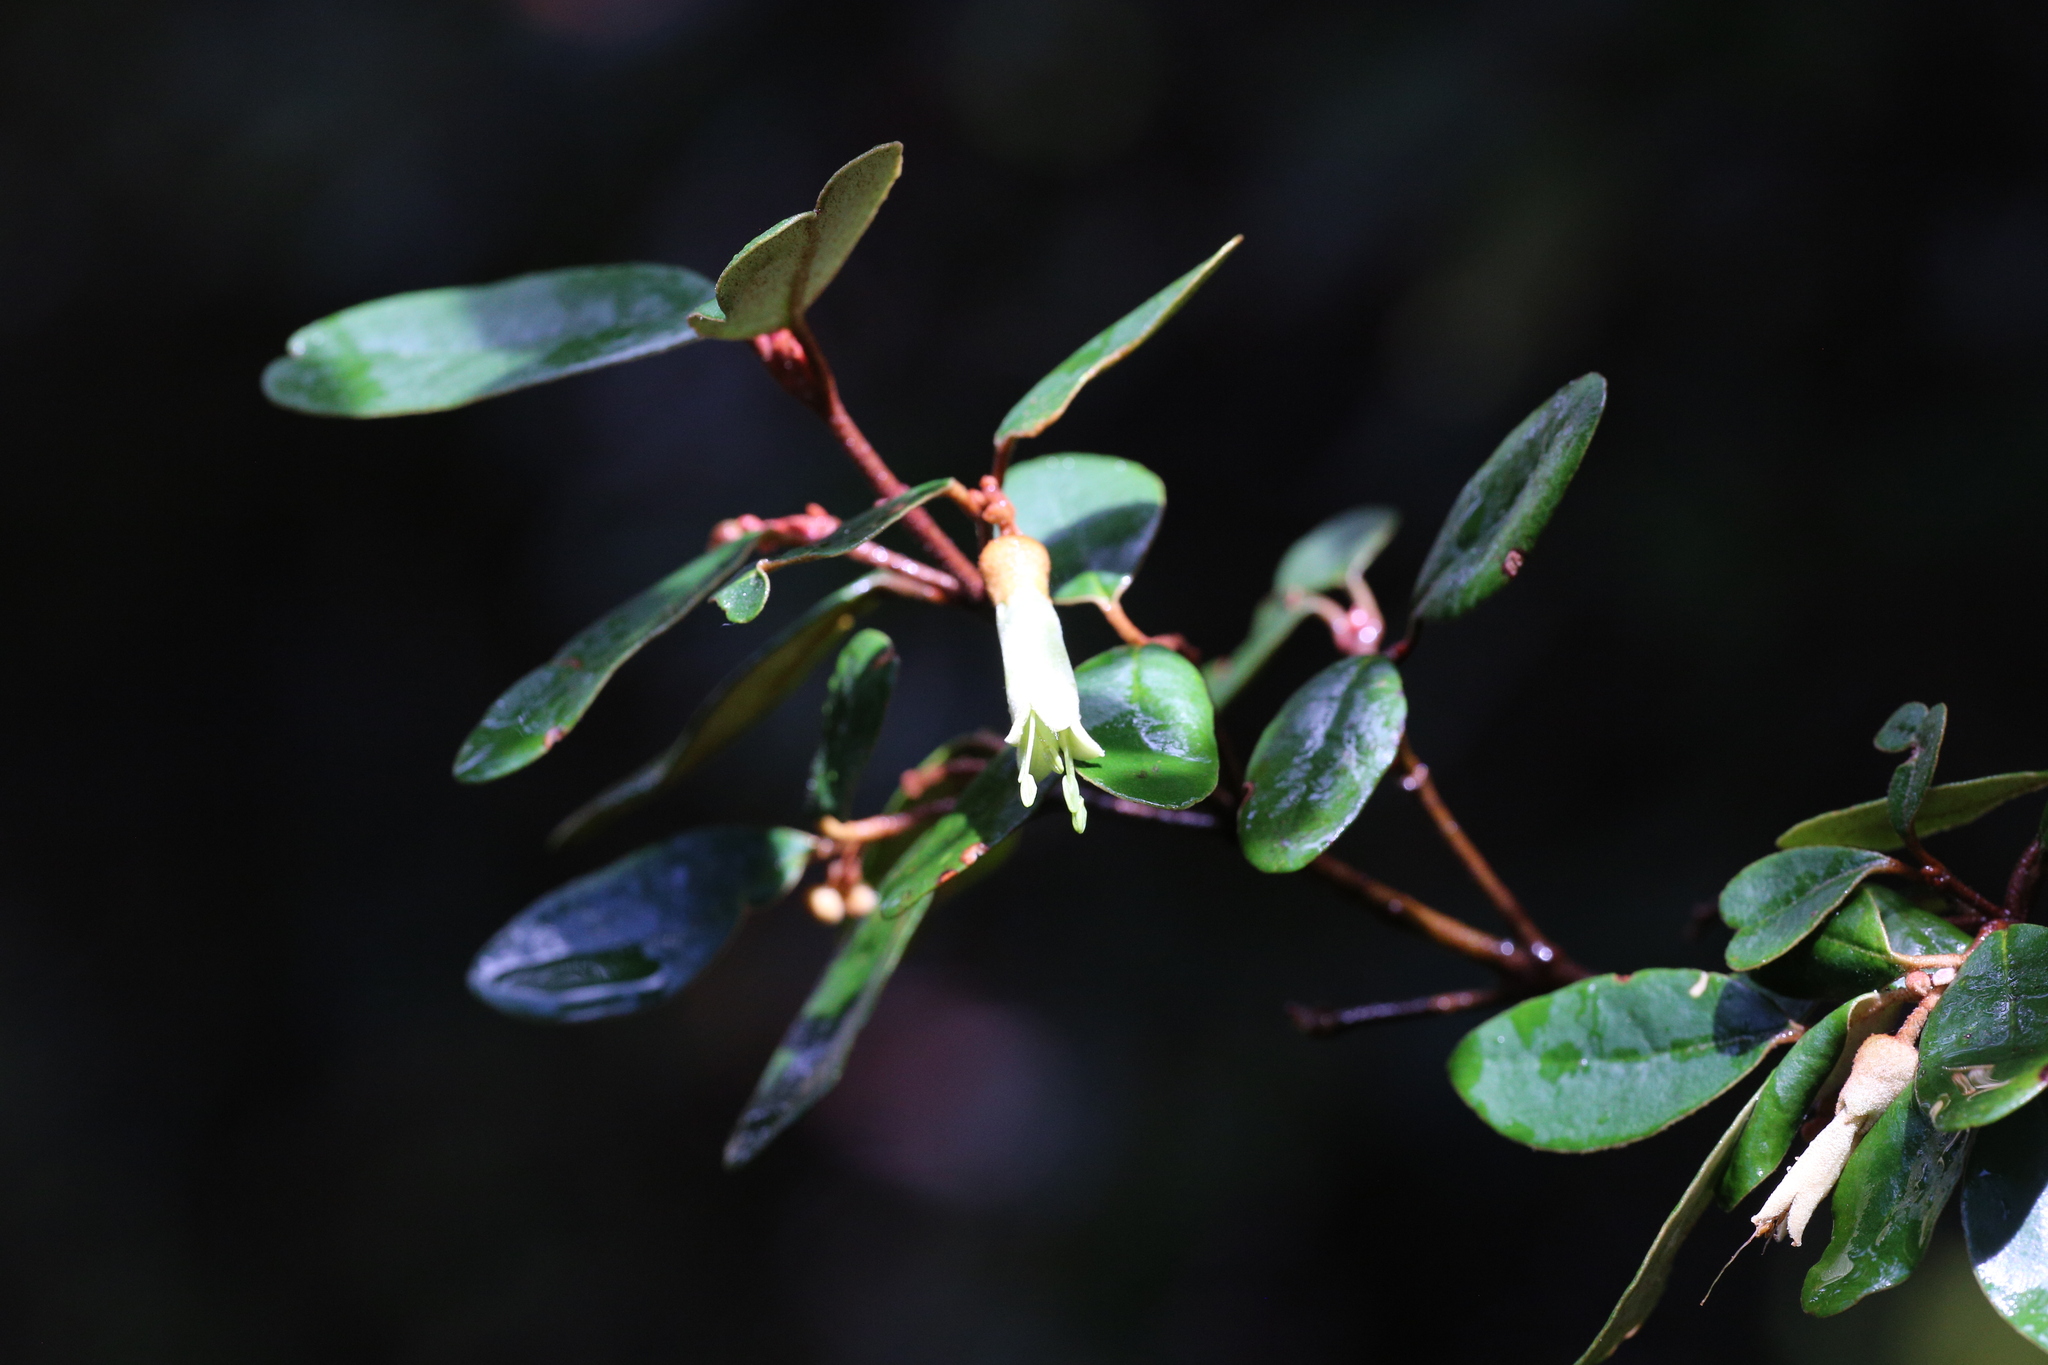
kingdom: Plantae
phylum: Tracheophyta
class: Magnoliopsida
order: Sapindales
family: Rutaceae
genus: Correa
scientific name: Correa lawrenceana
